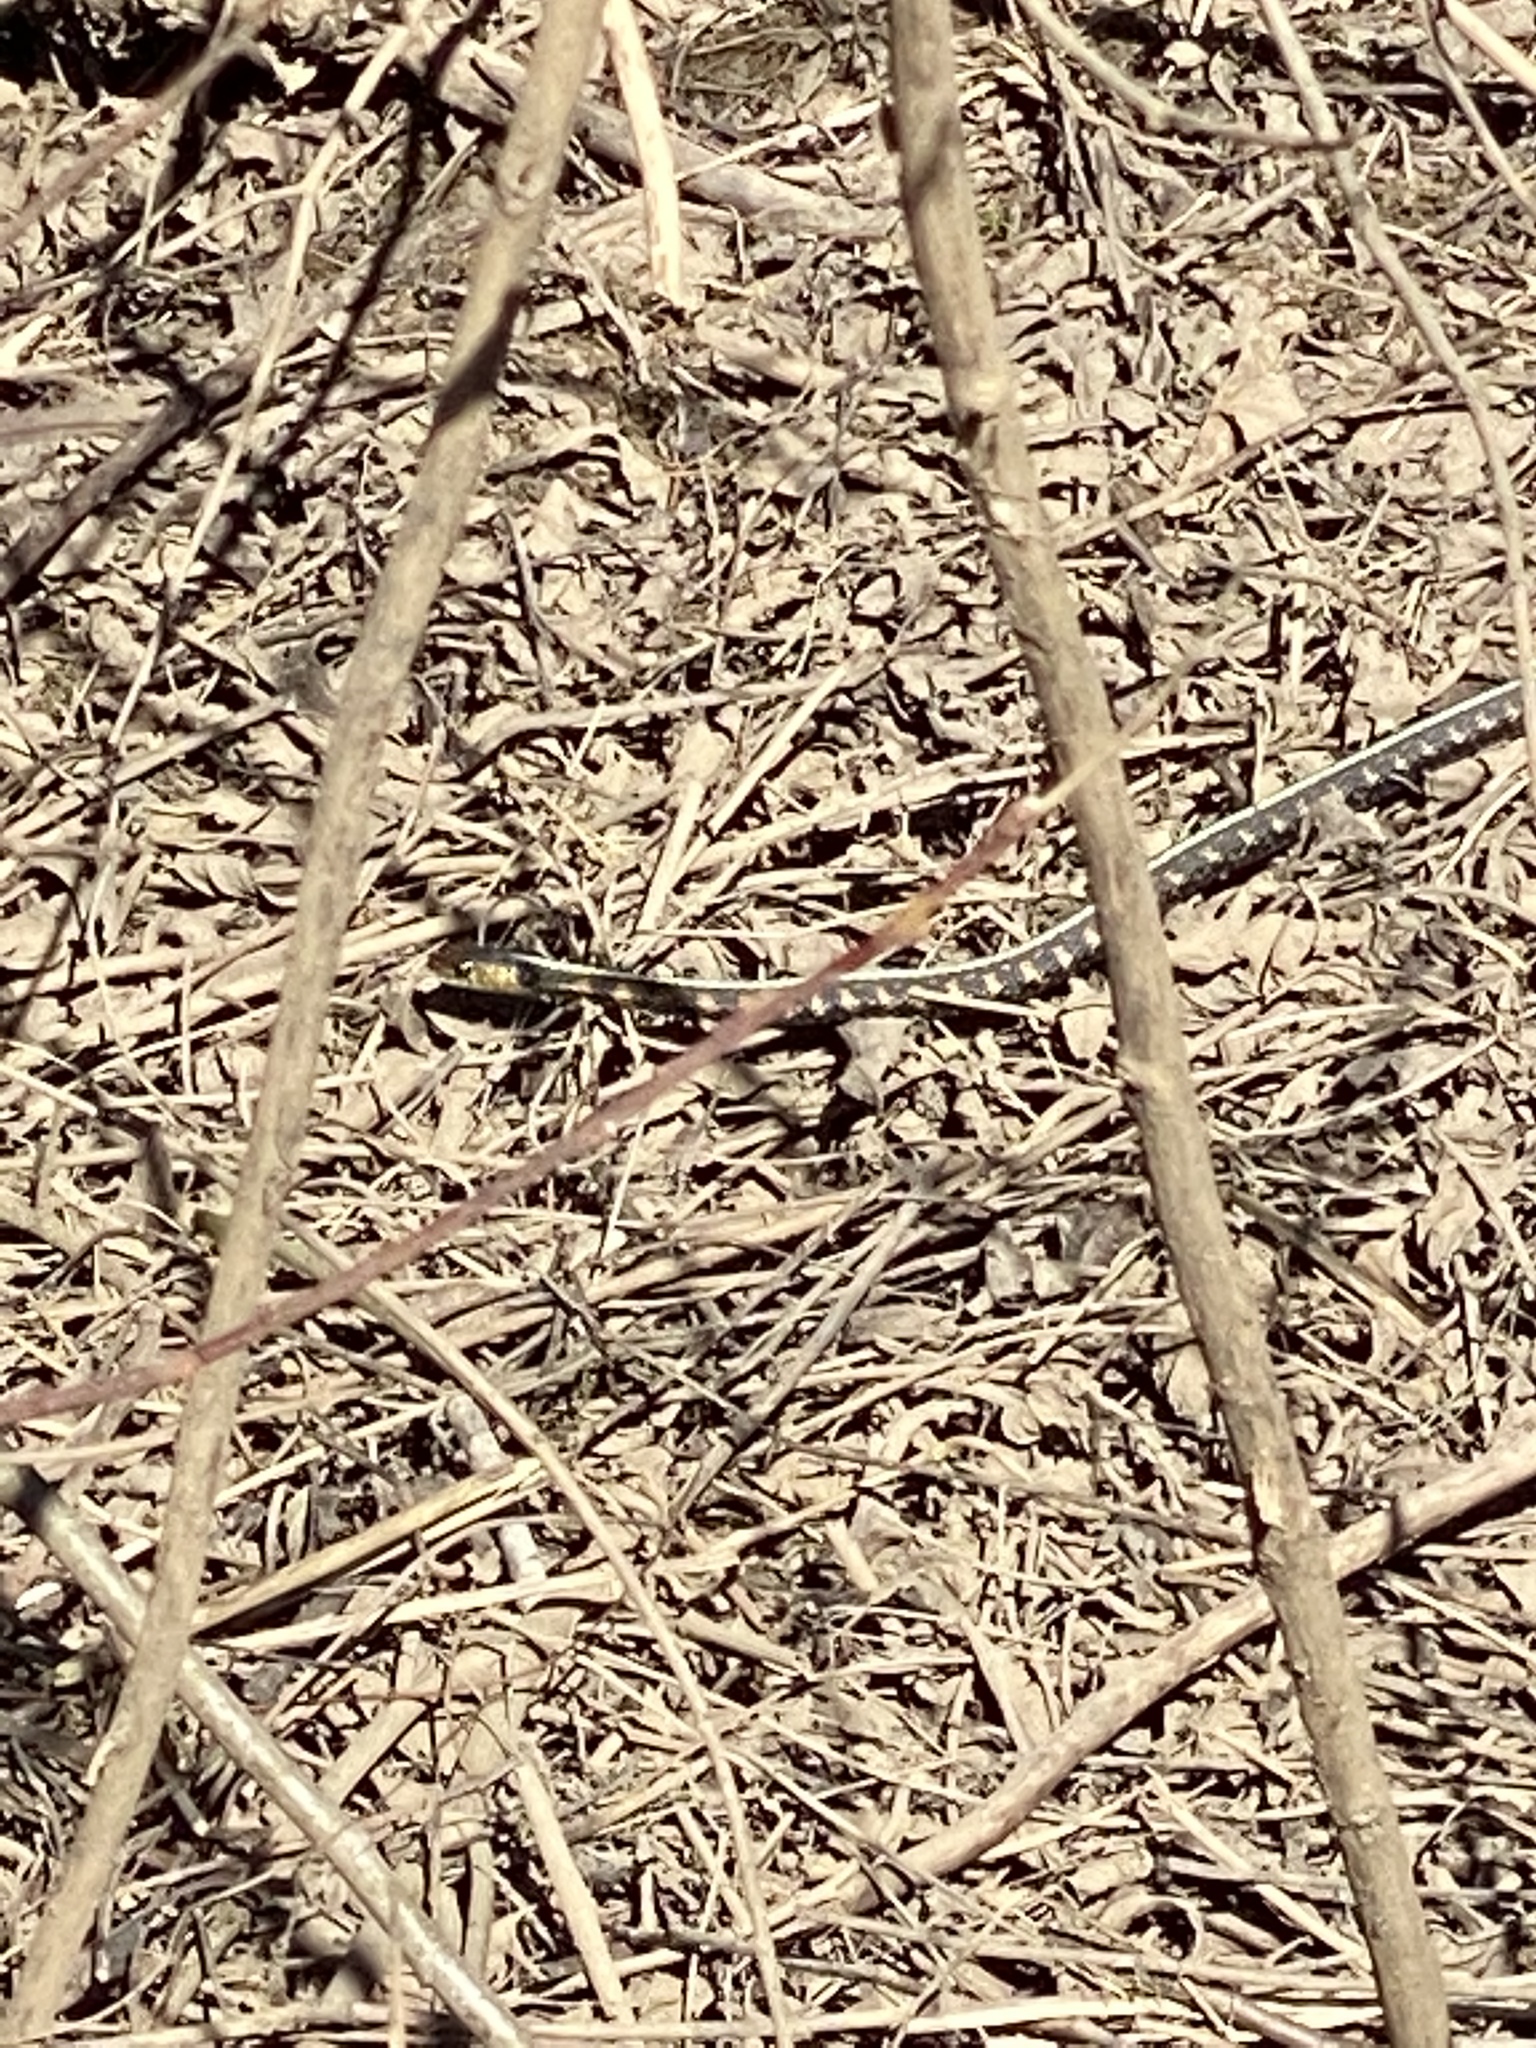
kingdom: Animalia
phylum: Chordata
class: Squamata
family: Colubridae
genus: Thamnophis
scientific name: Thamnophis sirtalis
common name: Common garter snake
